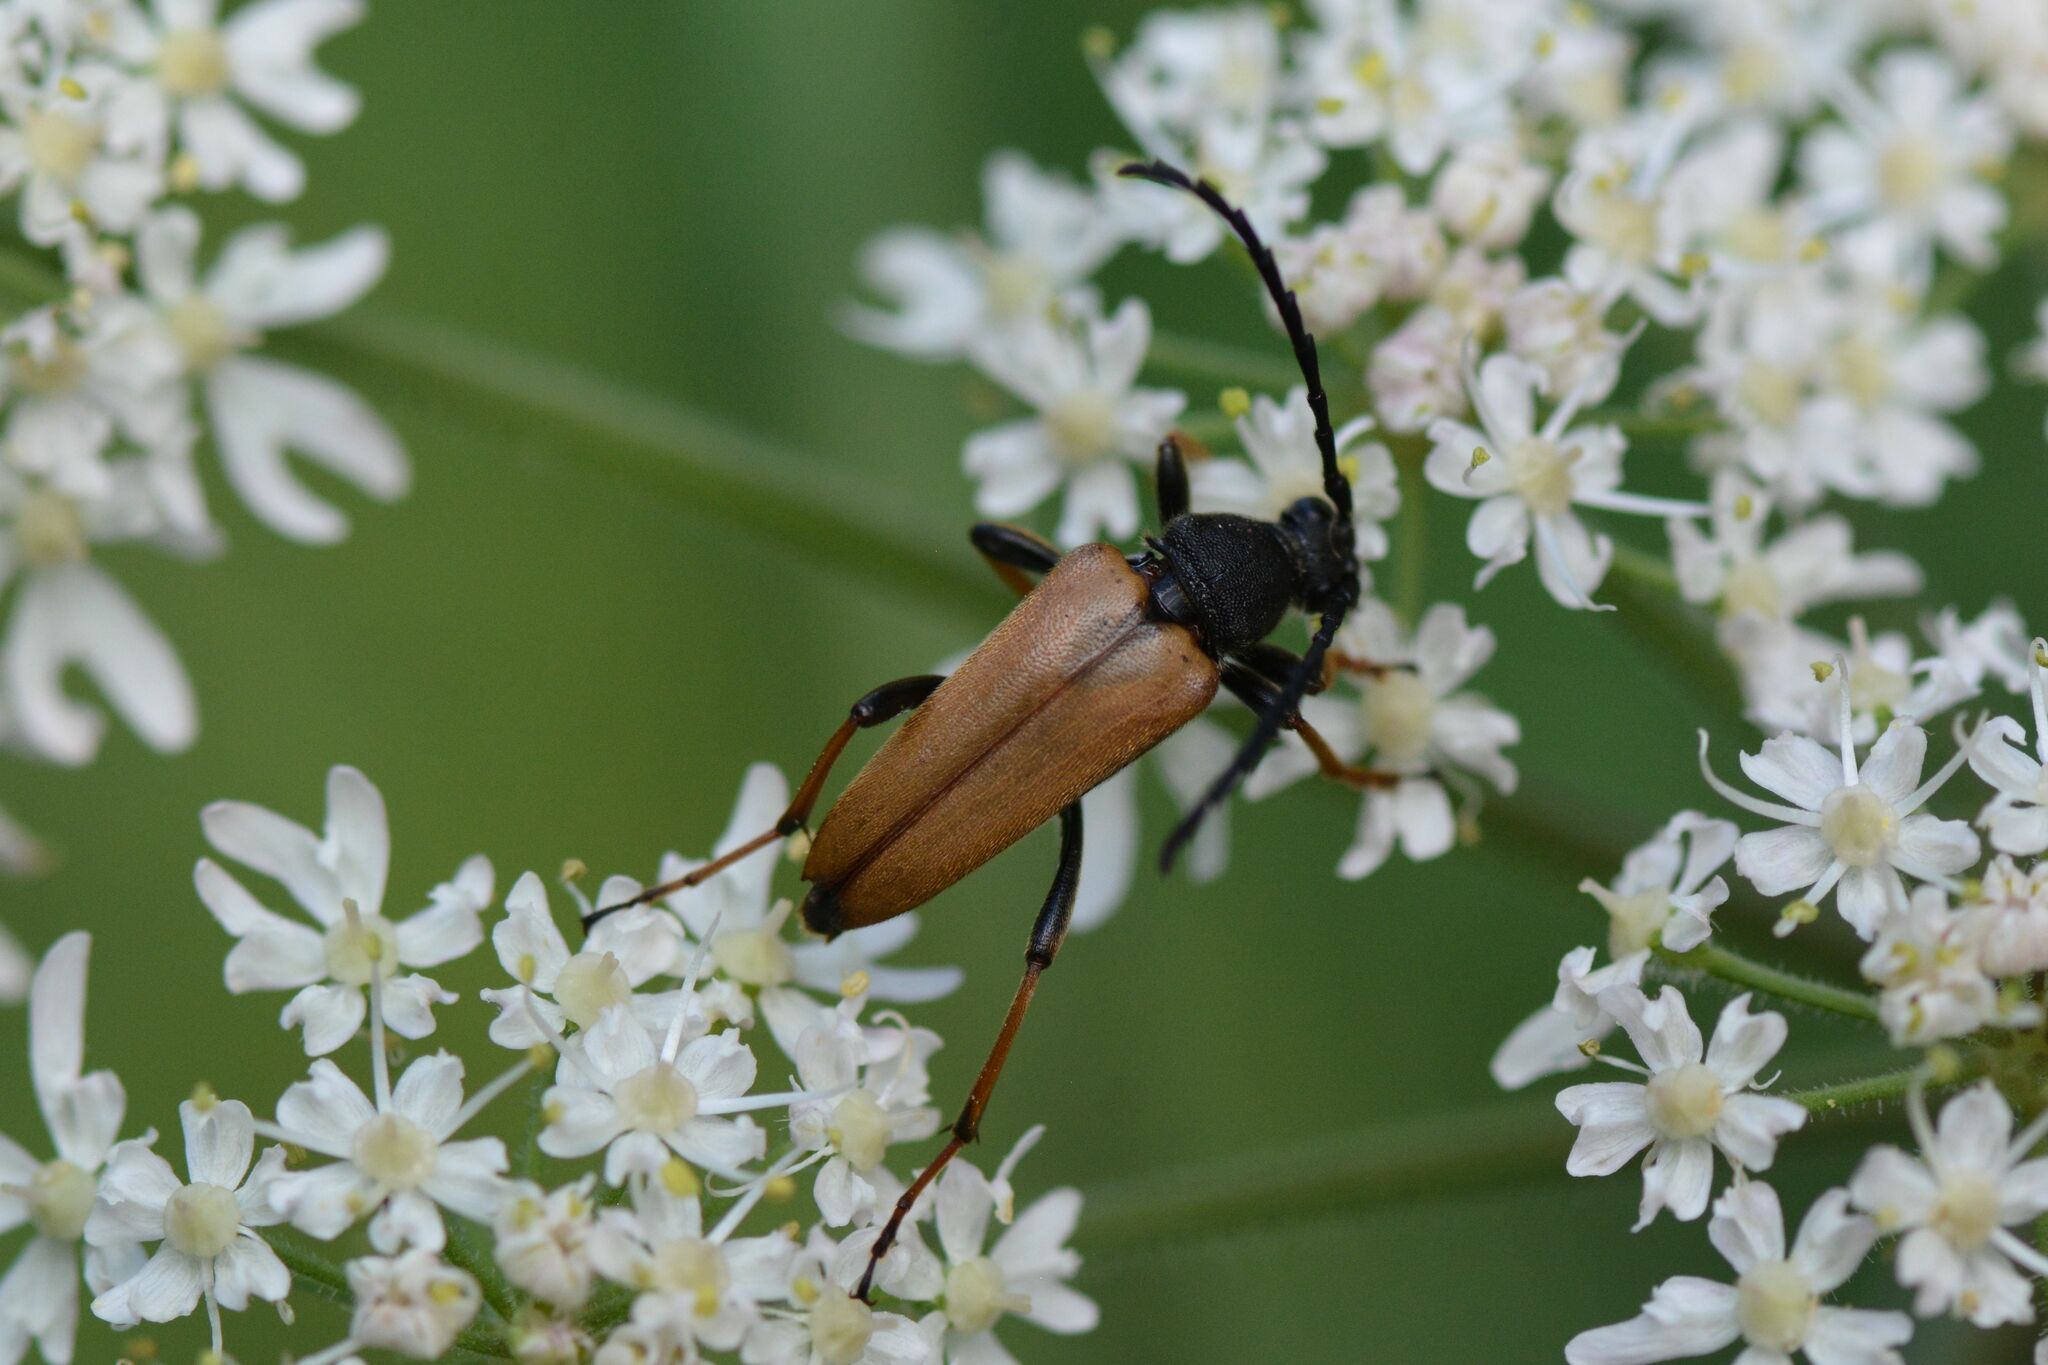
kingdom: Animalia
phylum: Arthropoda
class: Insecta
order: Coleoptera
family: Cerambycidae
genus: Stictoleptura
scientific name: Stictoleptura rubra
